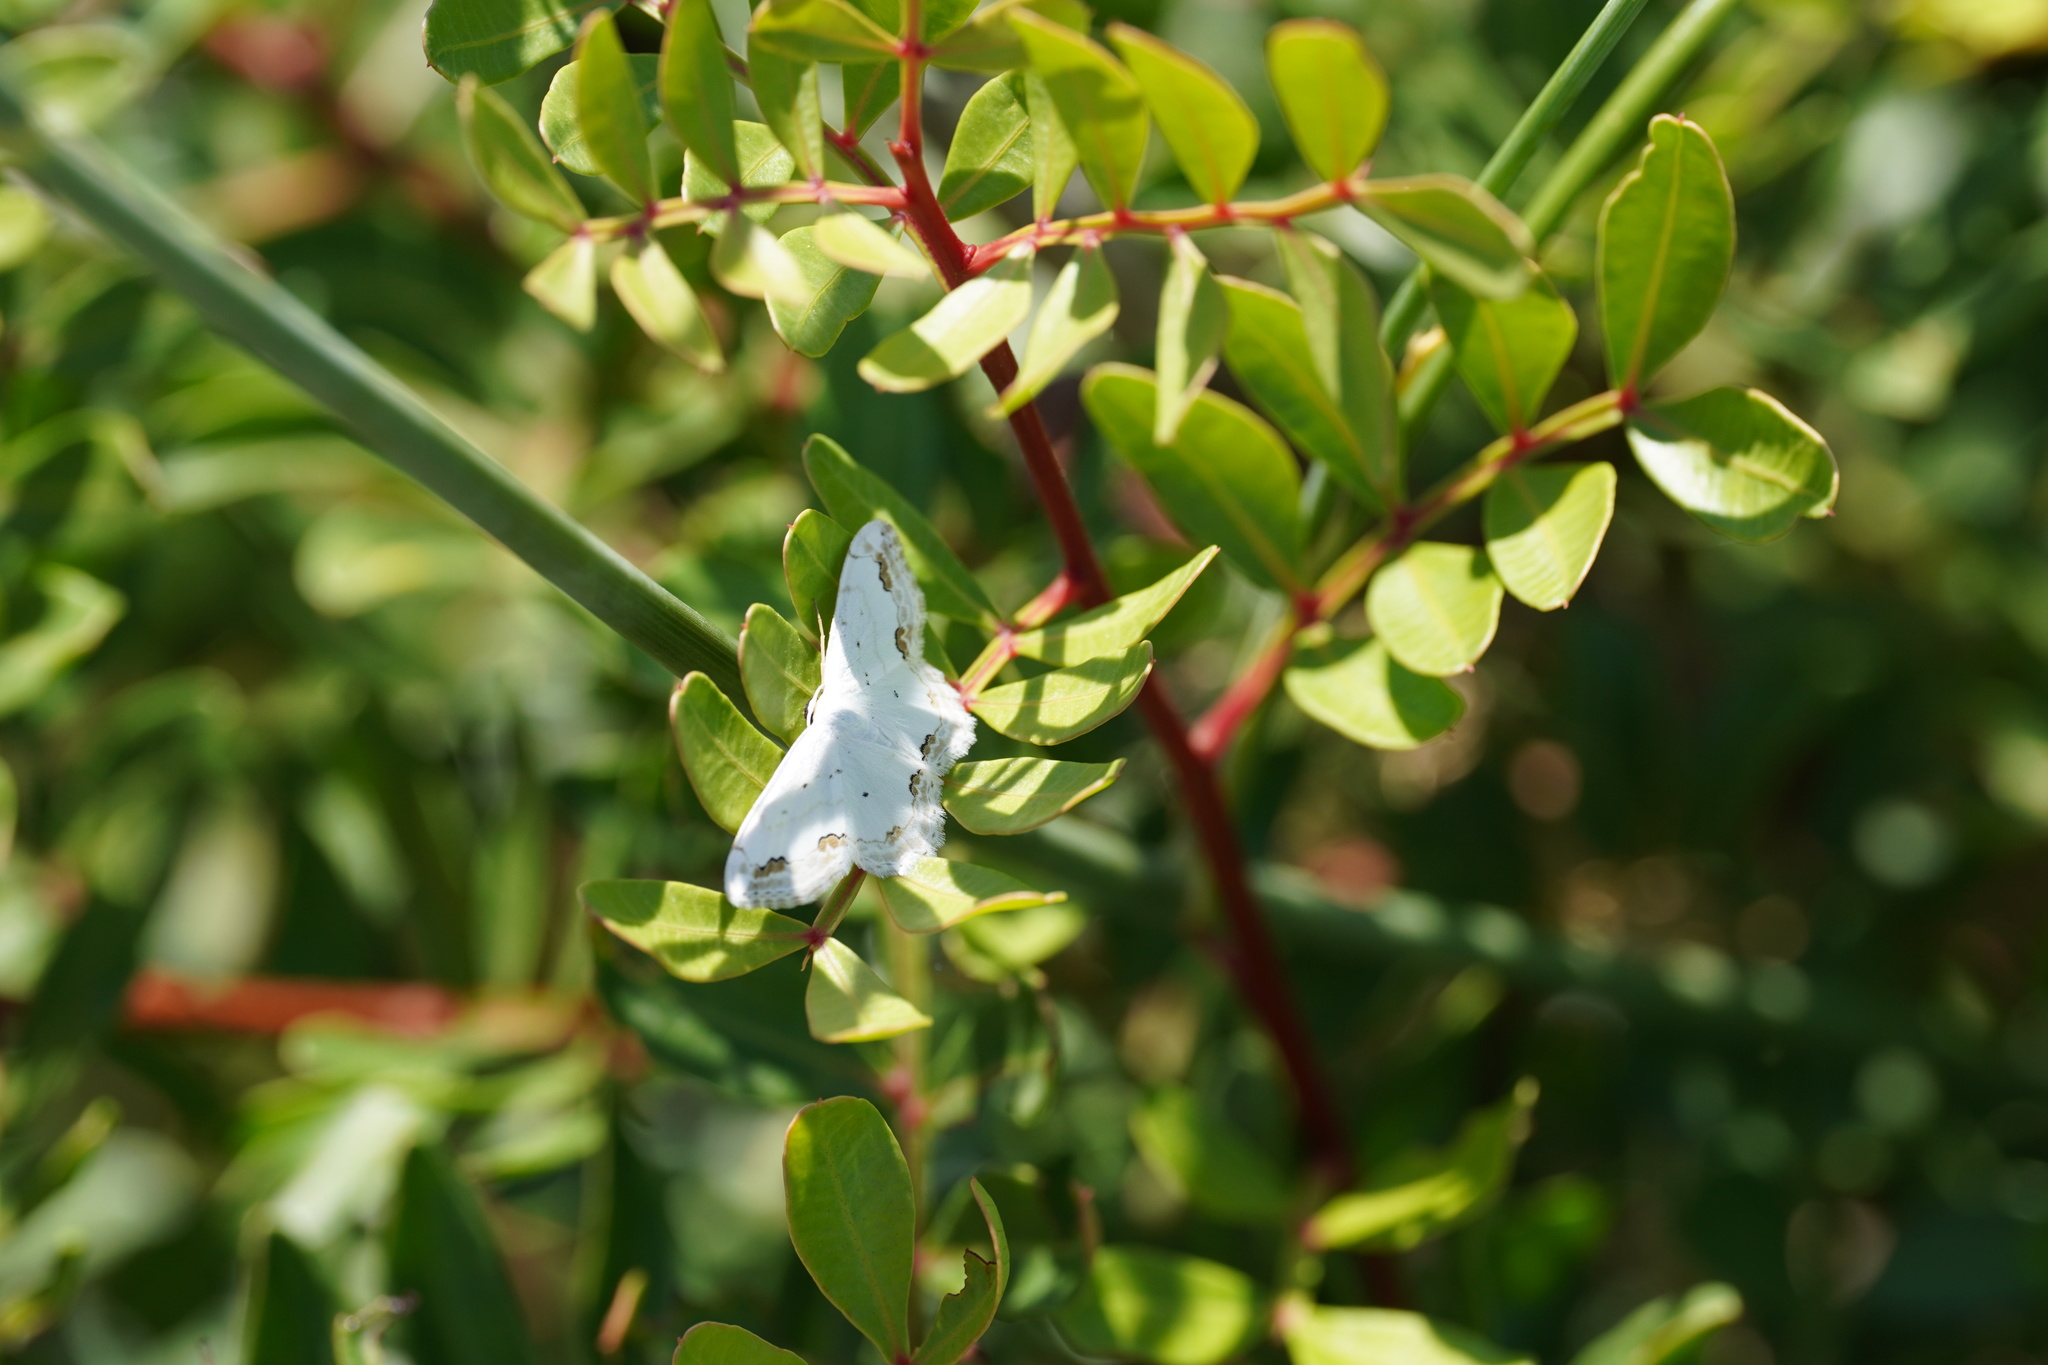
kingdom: Animalia
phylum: Arthropoda
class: Insecta
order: Lepidoptera
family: Geometridae
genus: Scopula
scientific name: Scopula ornata
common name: Lace border
